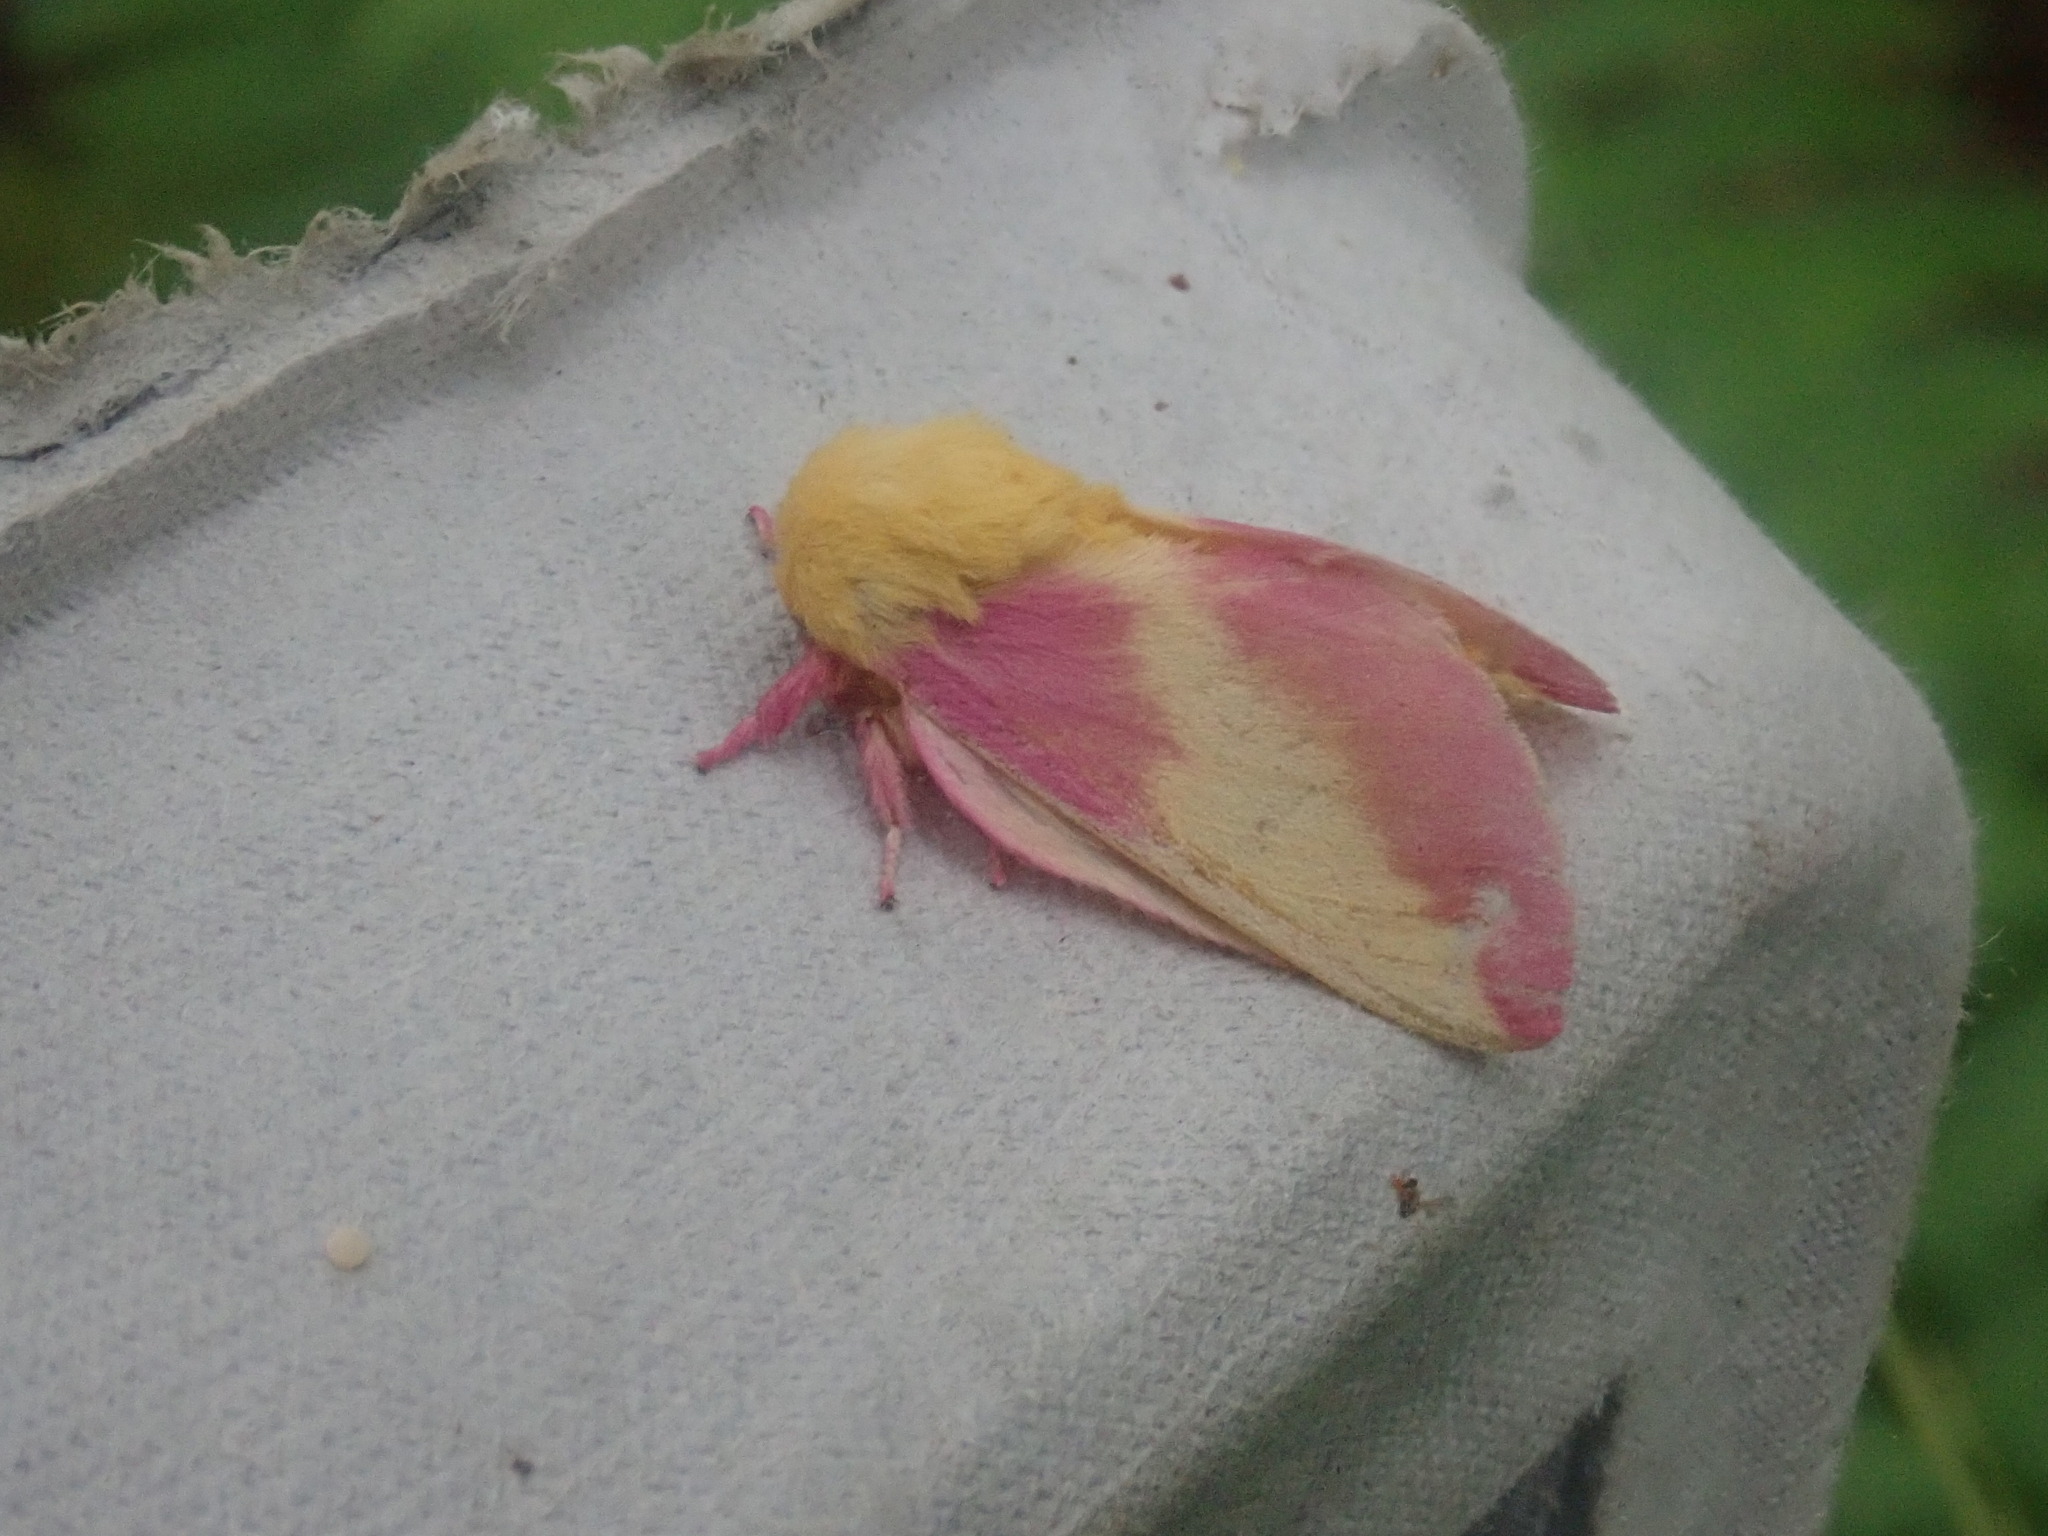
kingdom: Animalia
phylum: Arthropoda
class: Insecta
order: Lepidoptera
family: Saturniidae
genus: Dryocampa
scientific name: Dryocampa rubicunda
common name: Rosy maple moth
